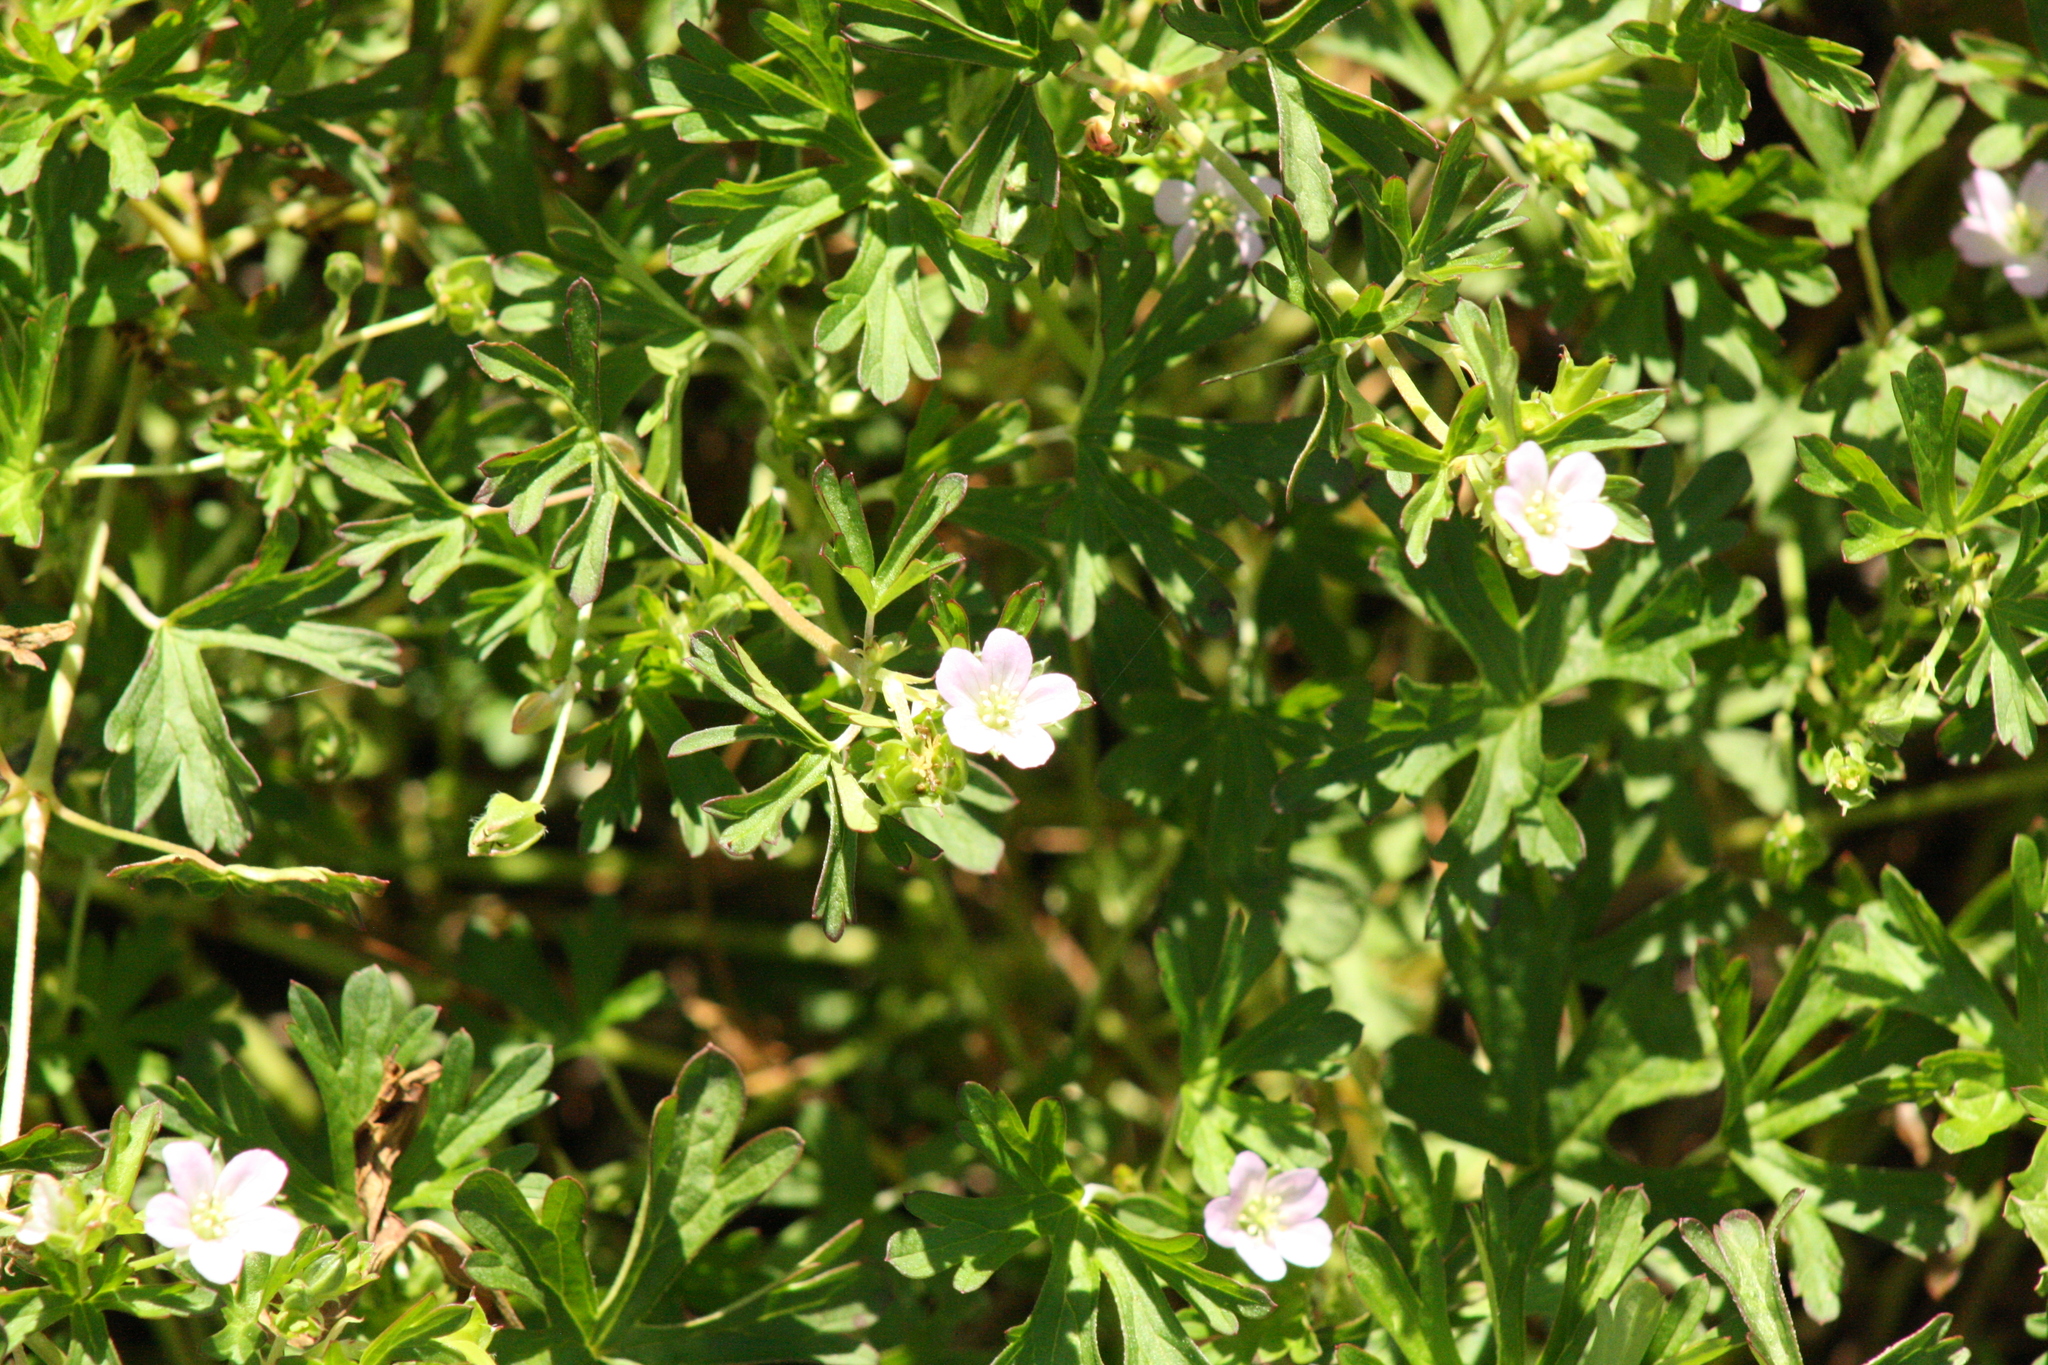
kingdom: Plantae
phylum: Tracheophyta
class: Magnoliopsida
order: Solanales
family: Solanaceae
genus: Lycium
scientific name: Lycium ferocissimum
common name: African boxthorn
